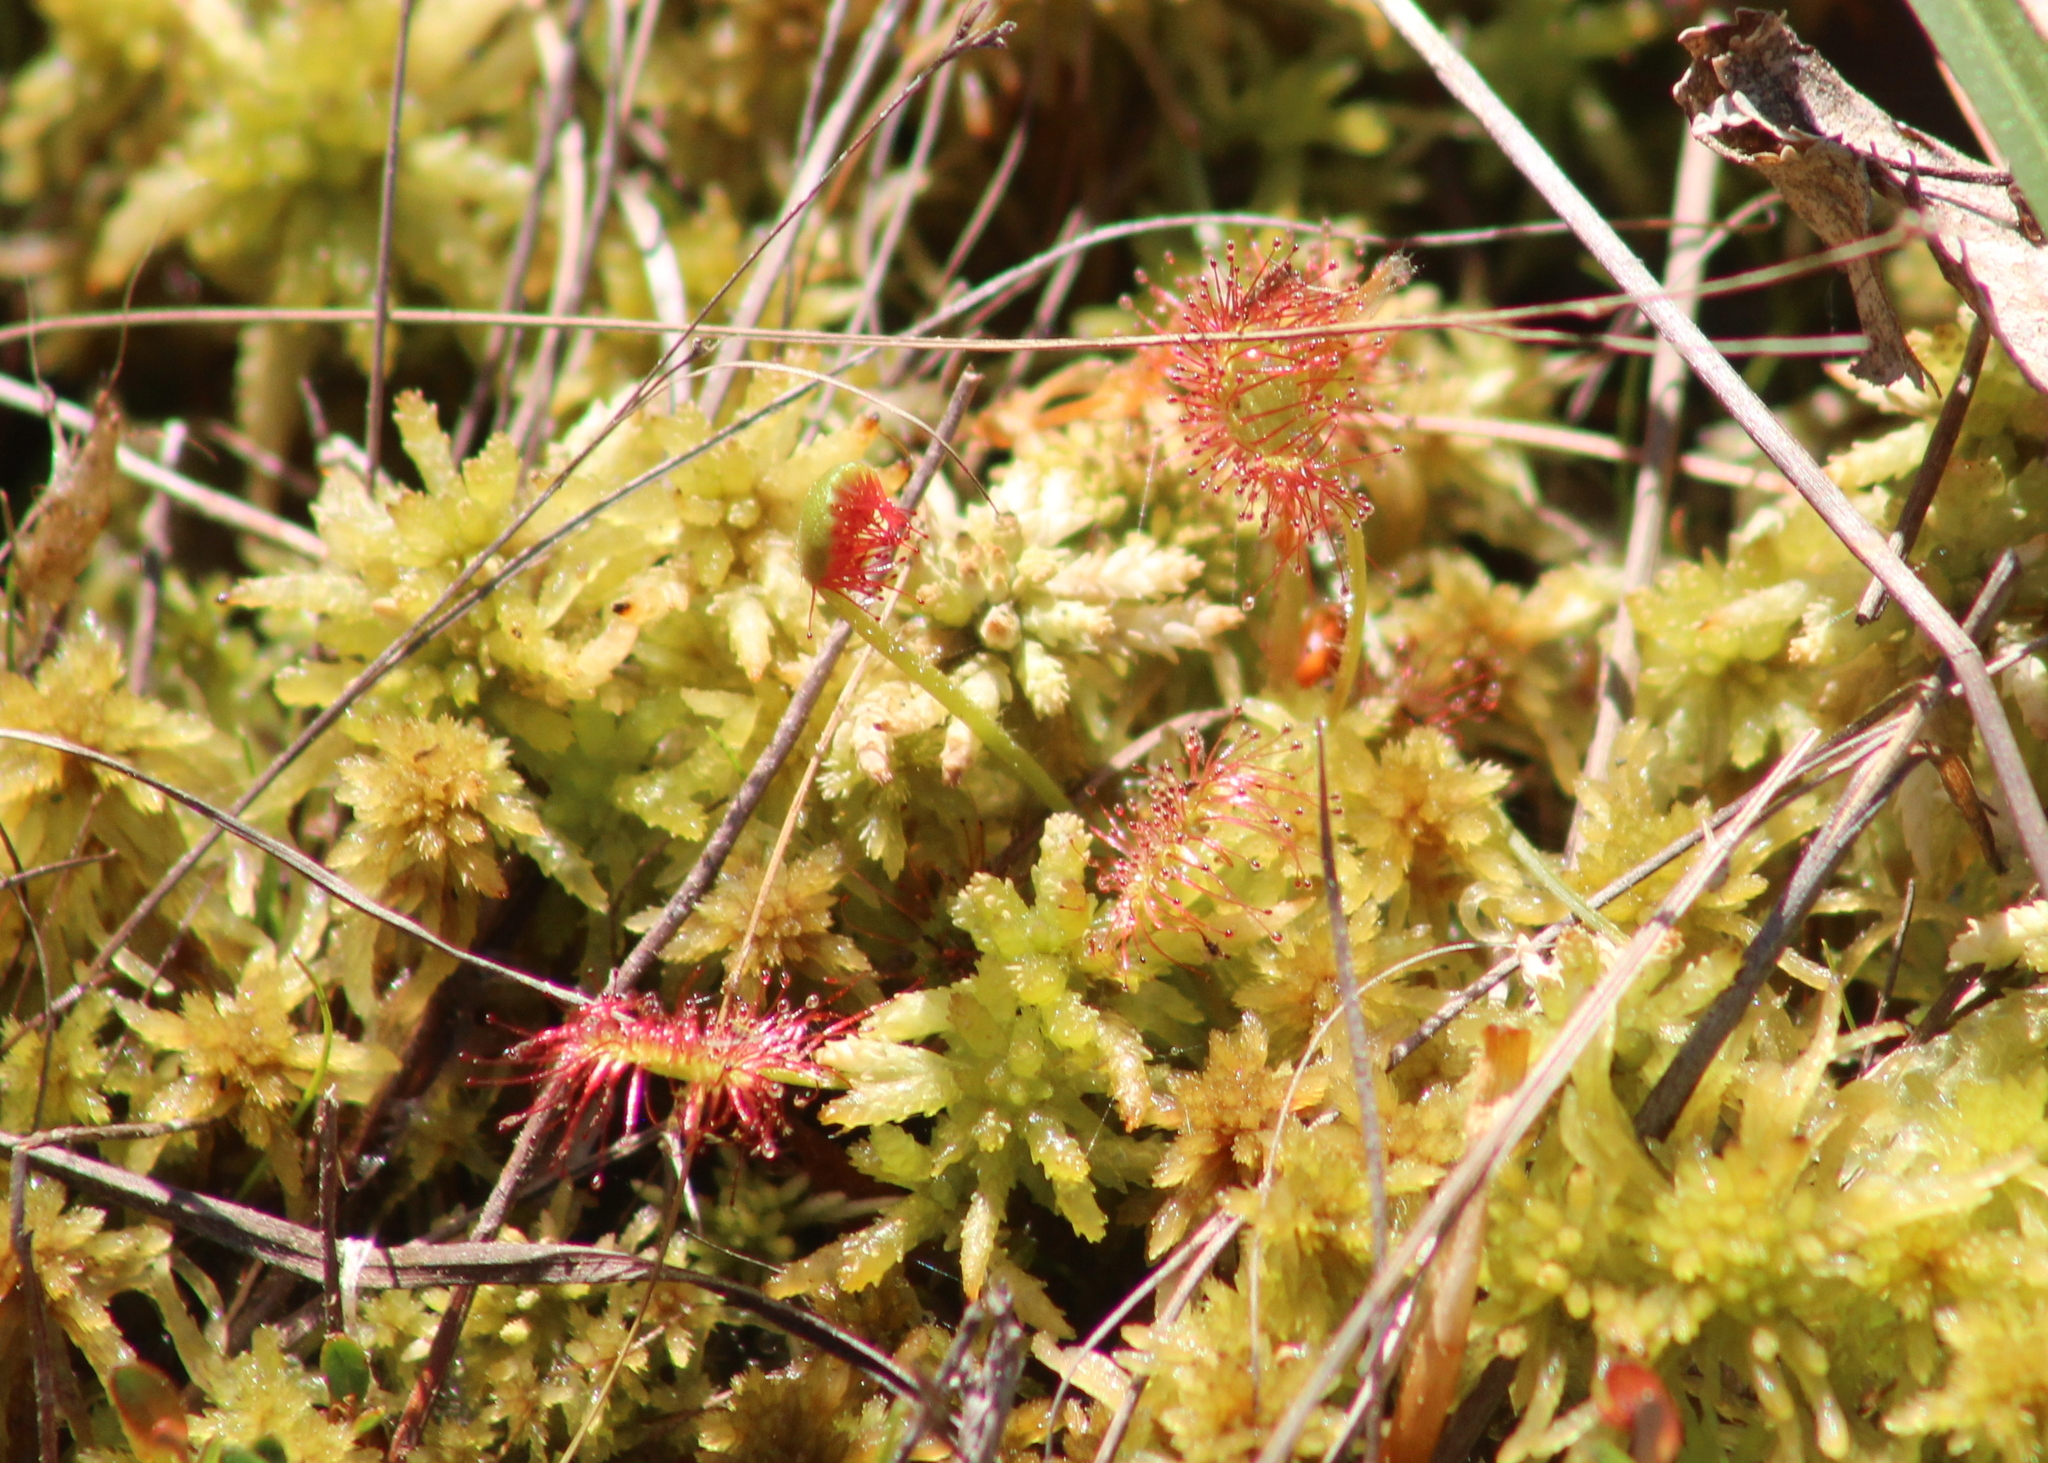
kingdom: Plantae
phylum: Tracheophyta
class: Magnoliopsida
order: Caryophyllales
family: Droseraceae
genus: Drosera
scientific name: Drosera rotundifolia
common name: Round-leaved sundew
